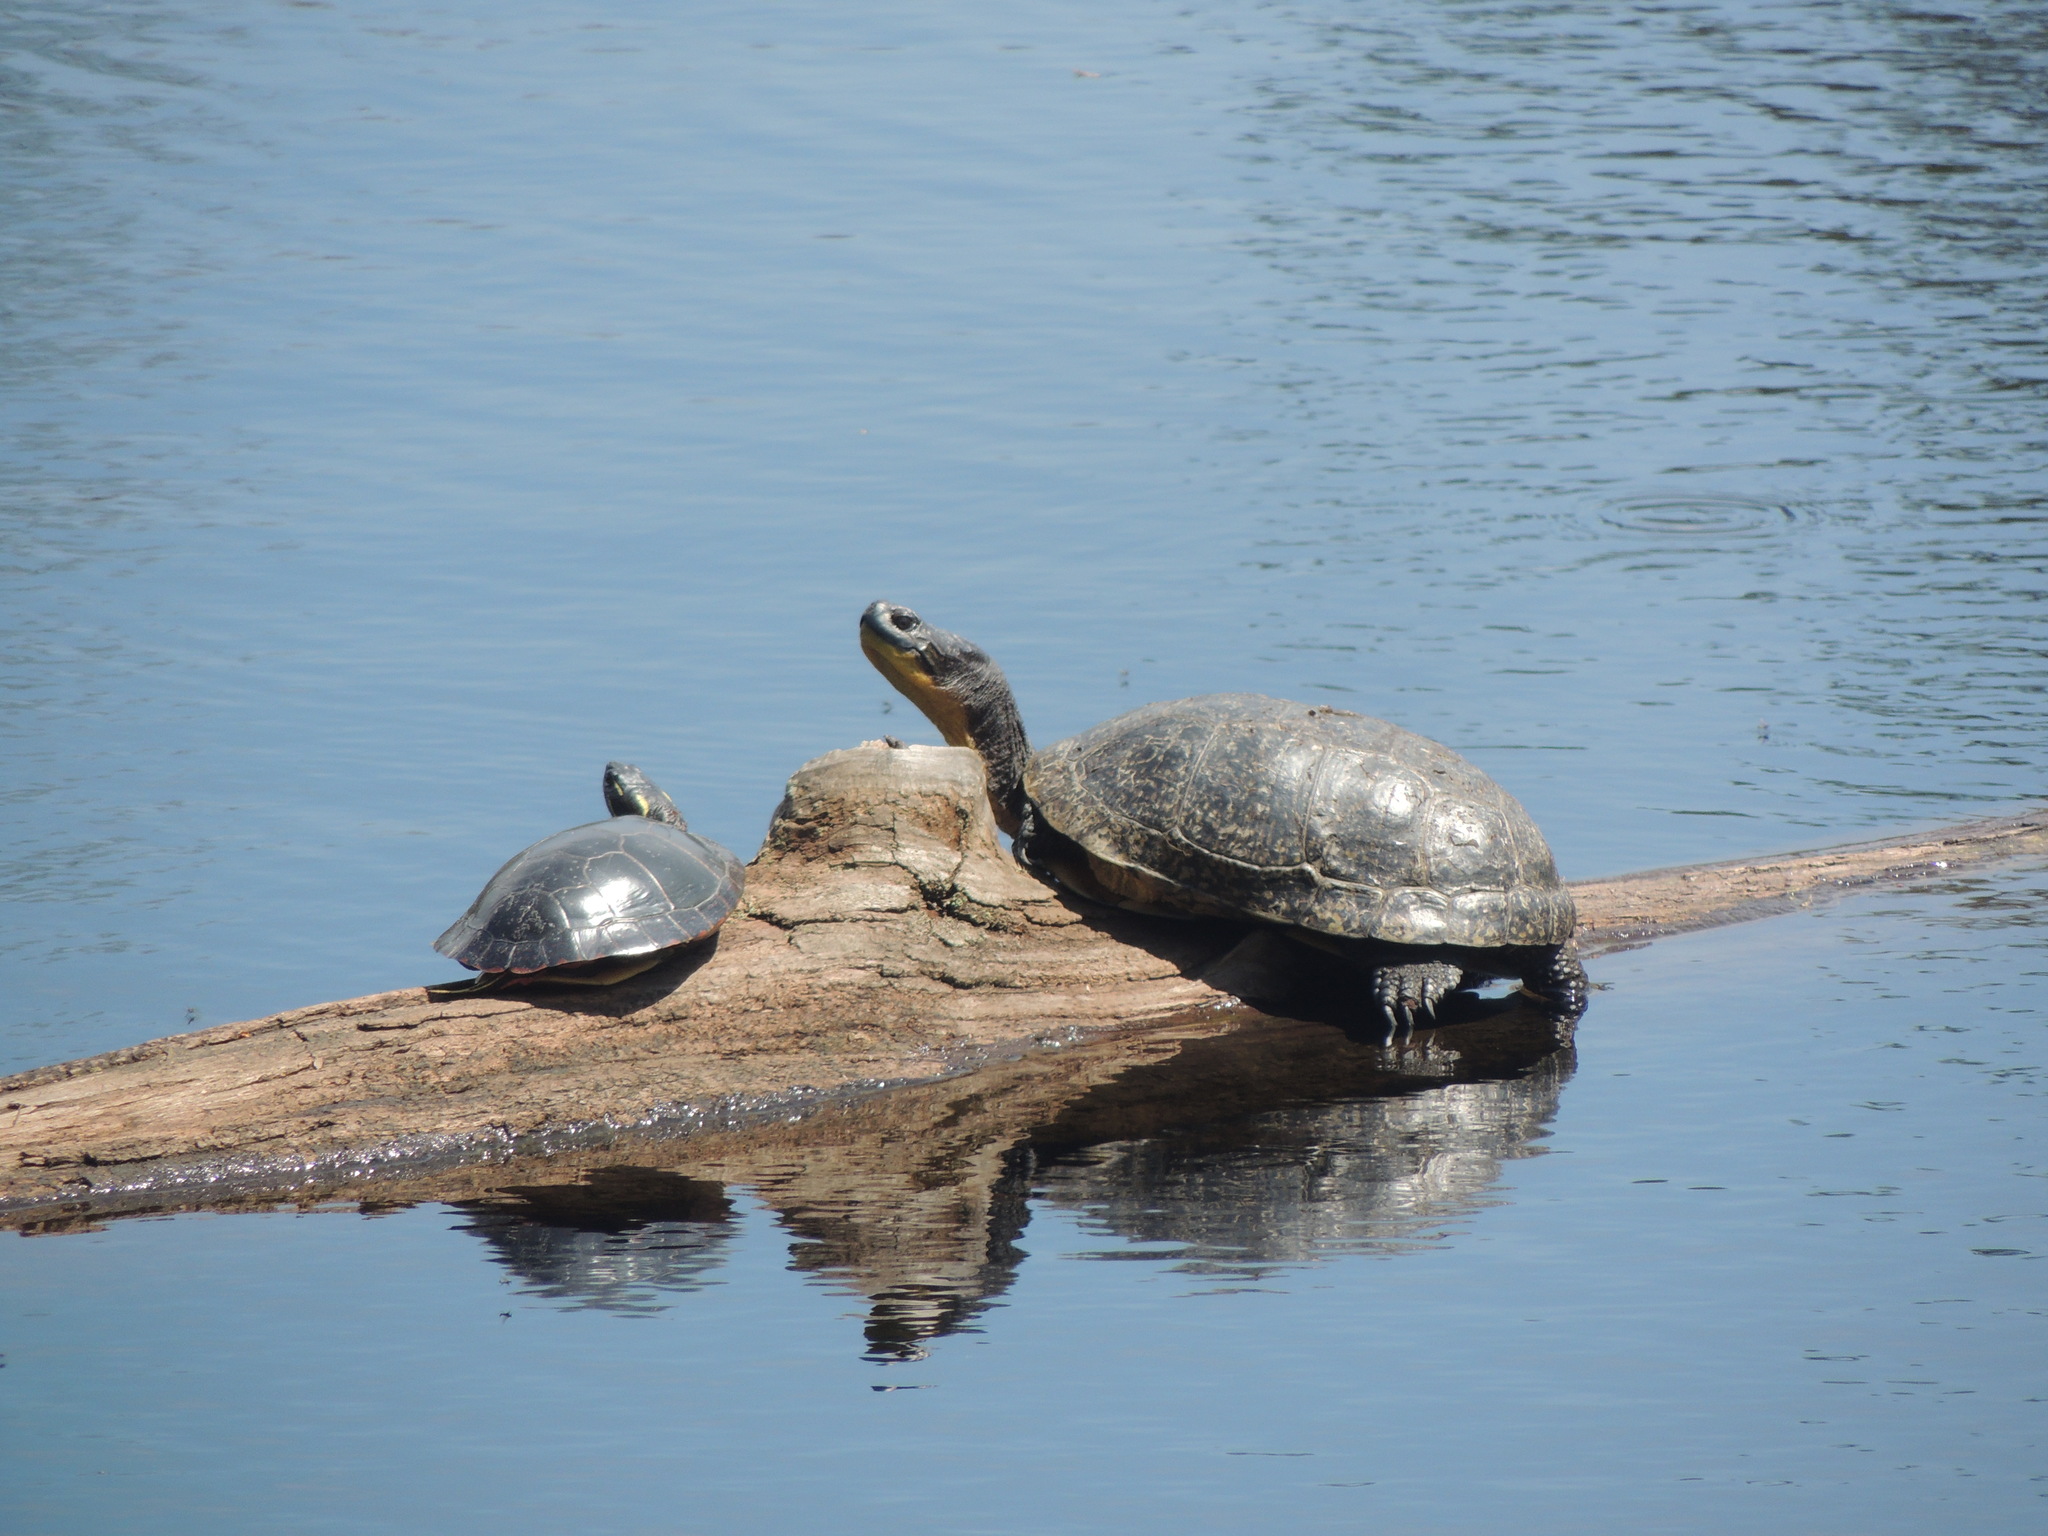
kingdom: Animalia
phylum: Chordata
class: Testudines
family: Emydidae
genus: Emys
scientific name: Emys blandingii
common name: Blanding's turtle
